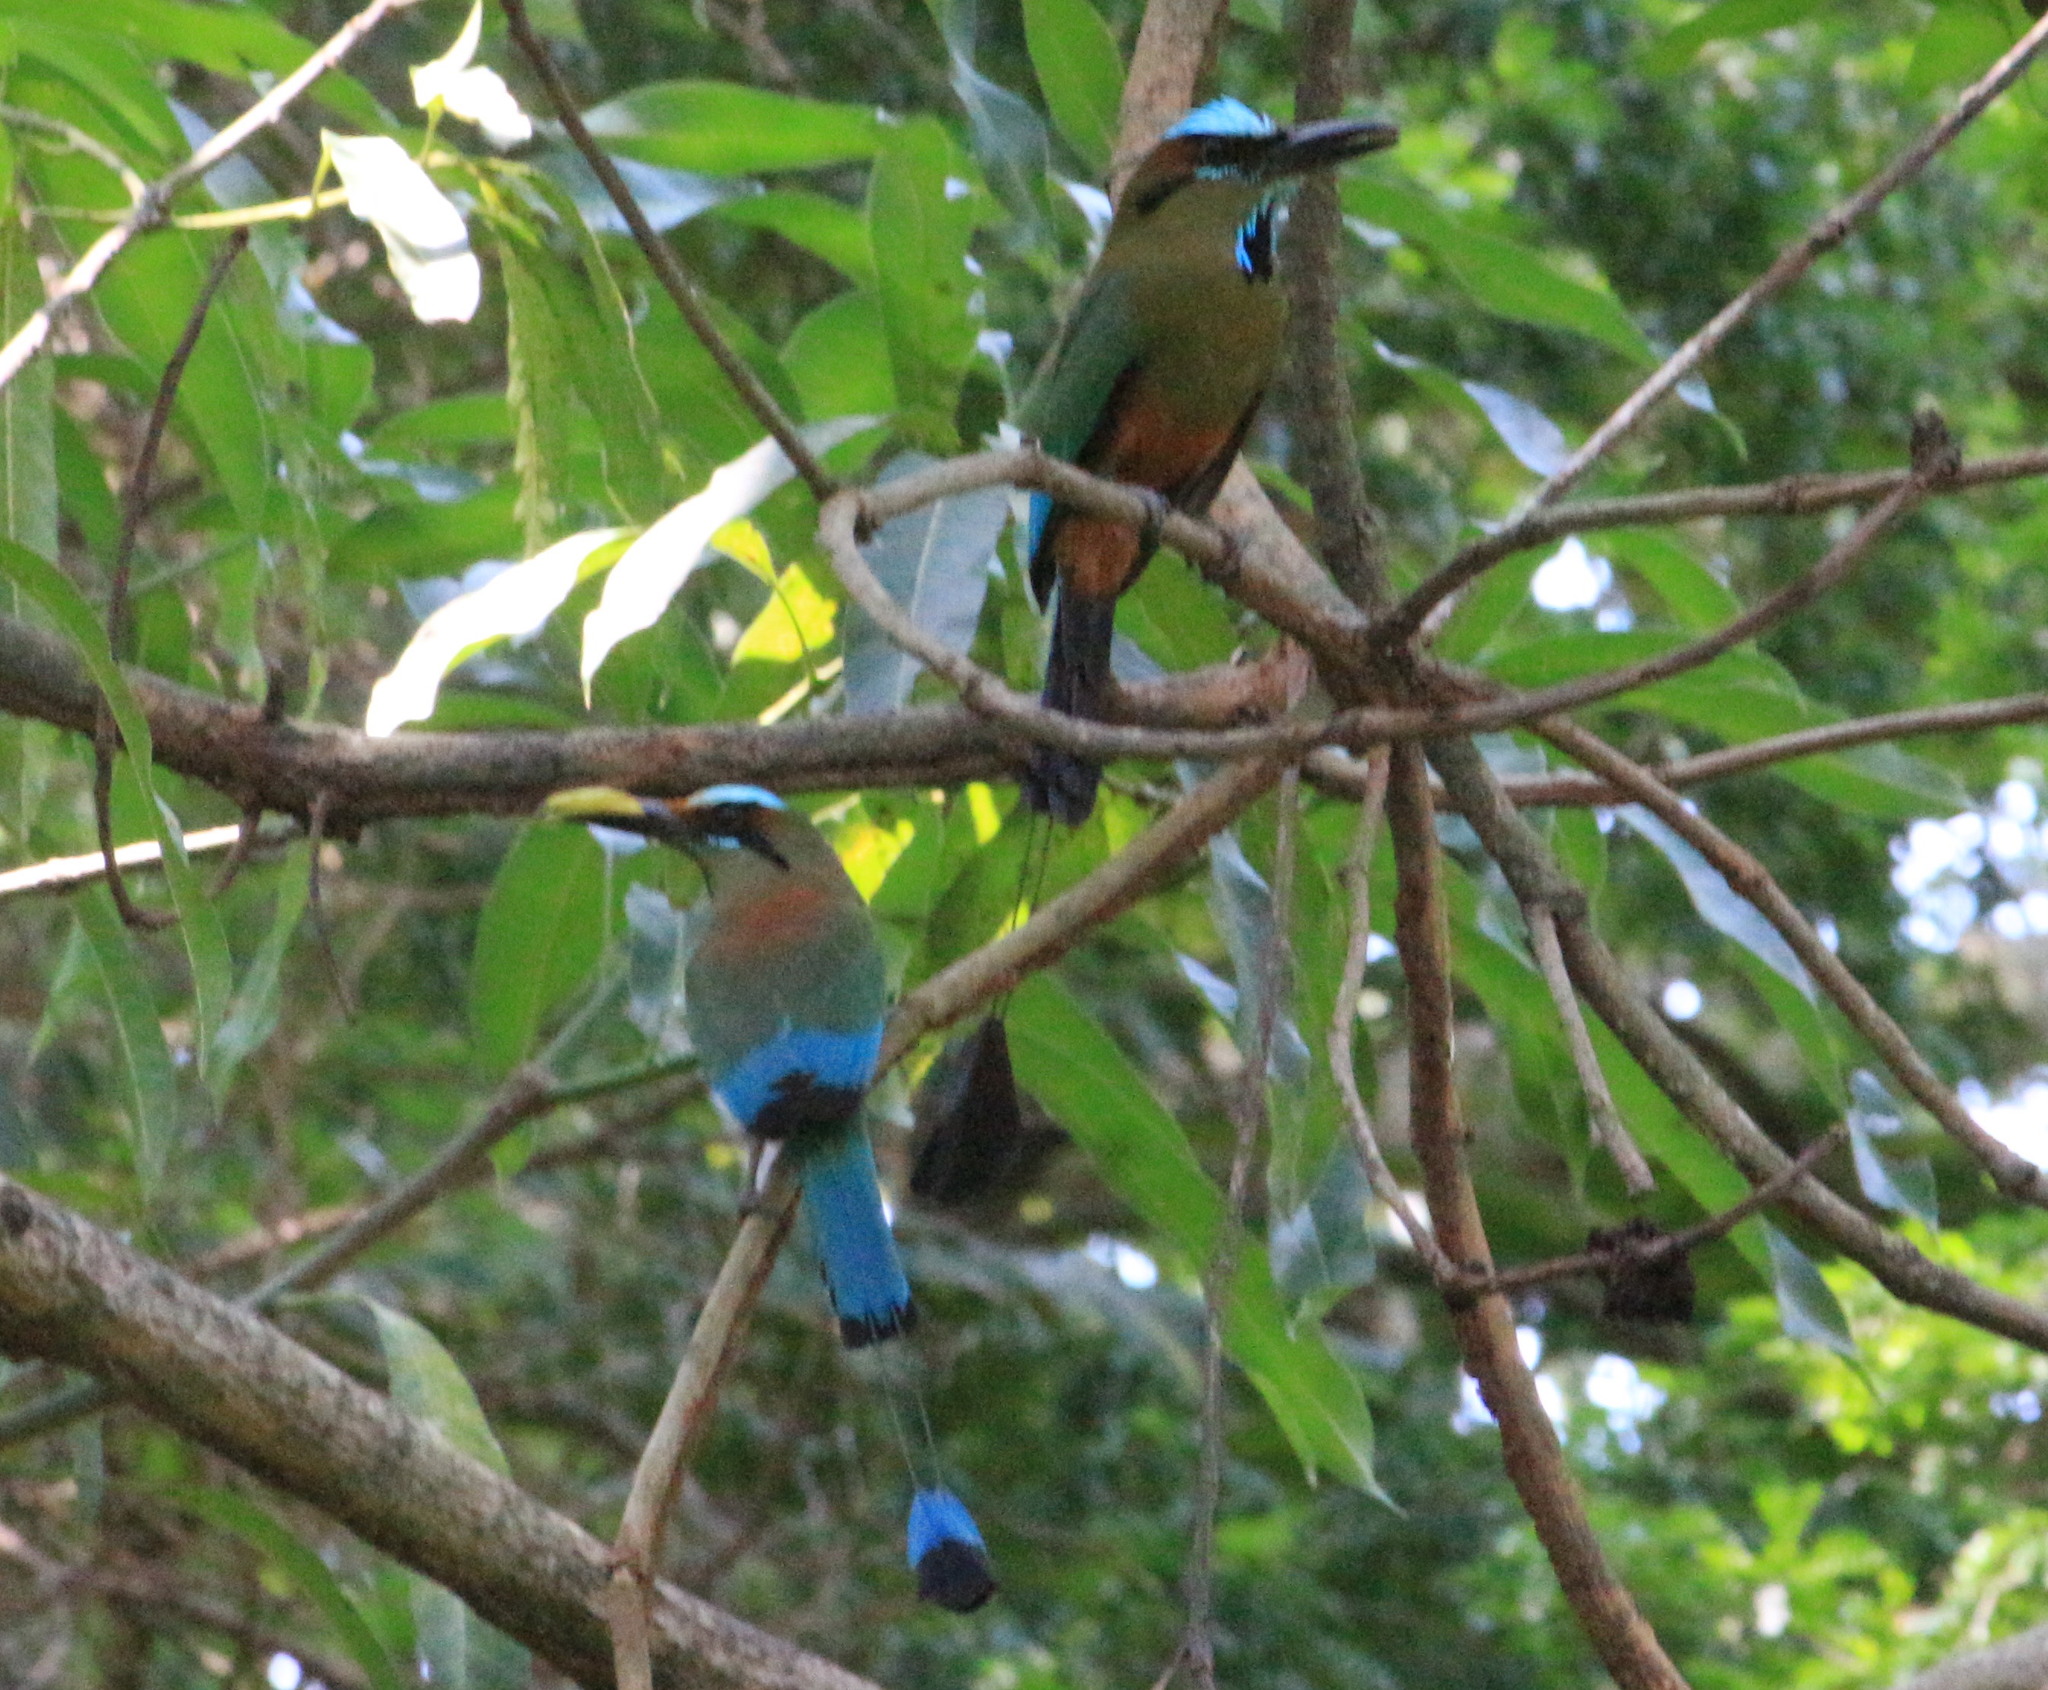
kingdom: Animalia
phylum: Chordata
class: Aves
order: Coraciiformes
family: Momotidae
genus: Eumomota
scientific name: Eumomota superciliosa
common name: Turquoise-browed motmot
